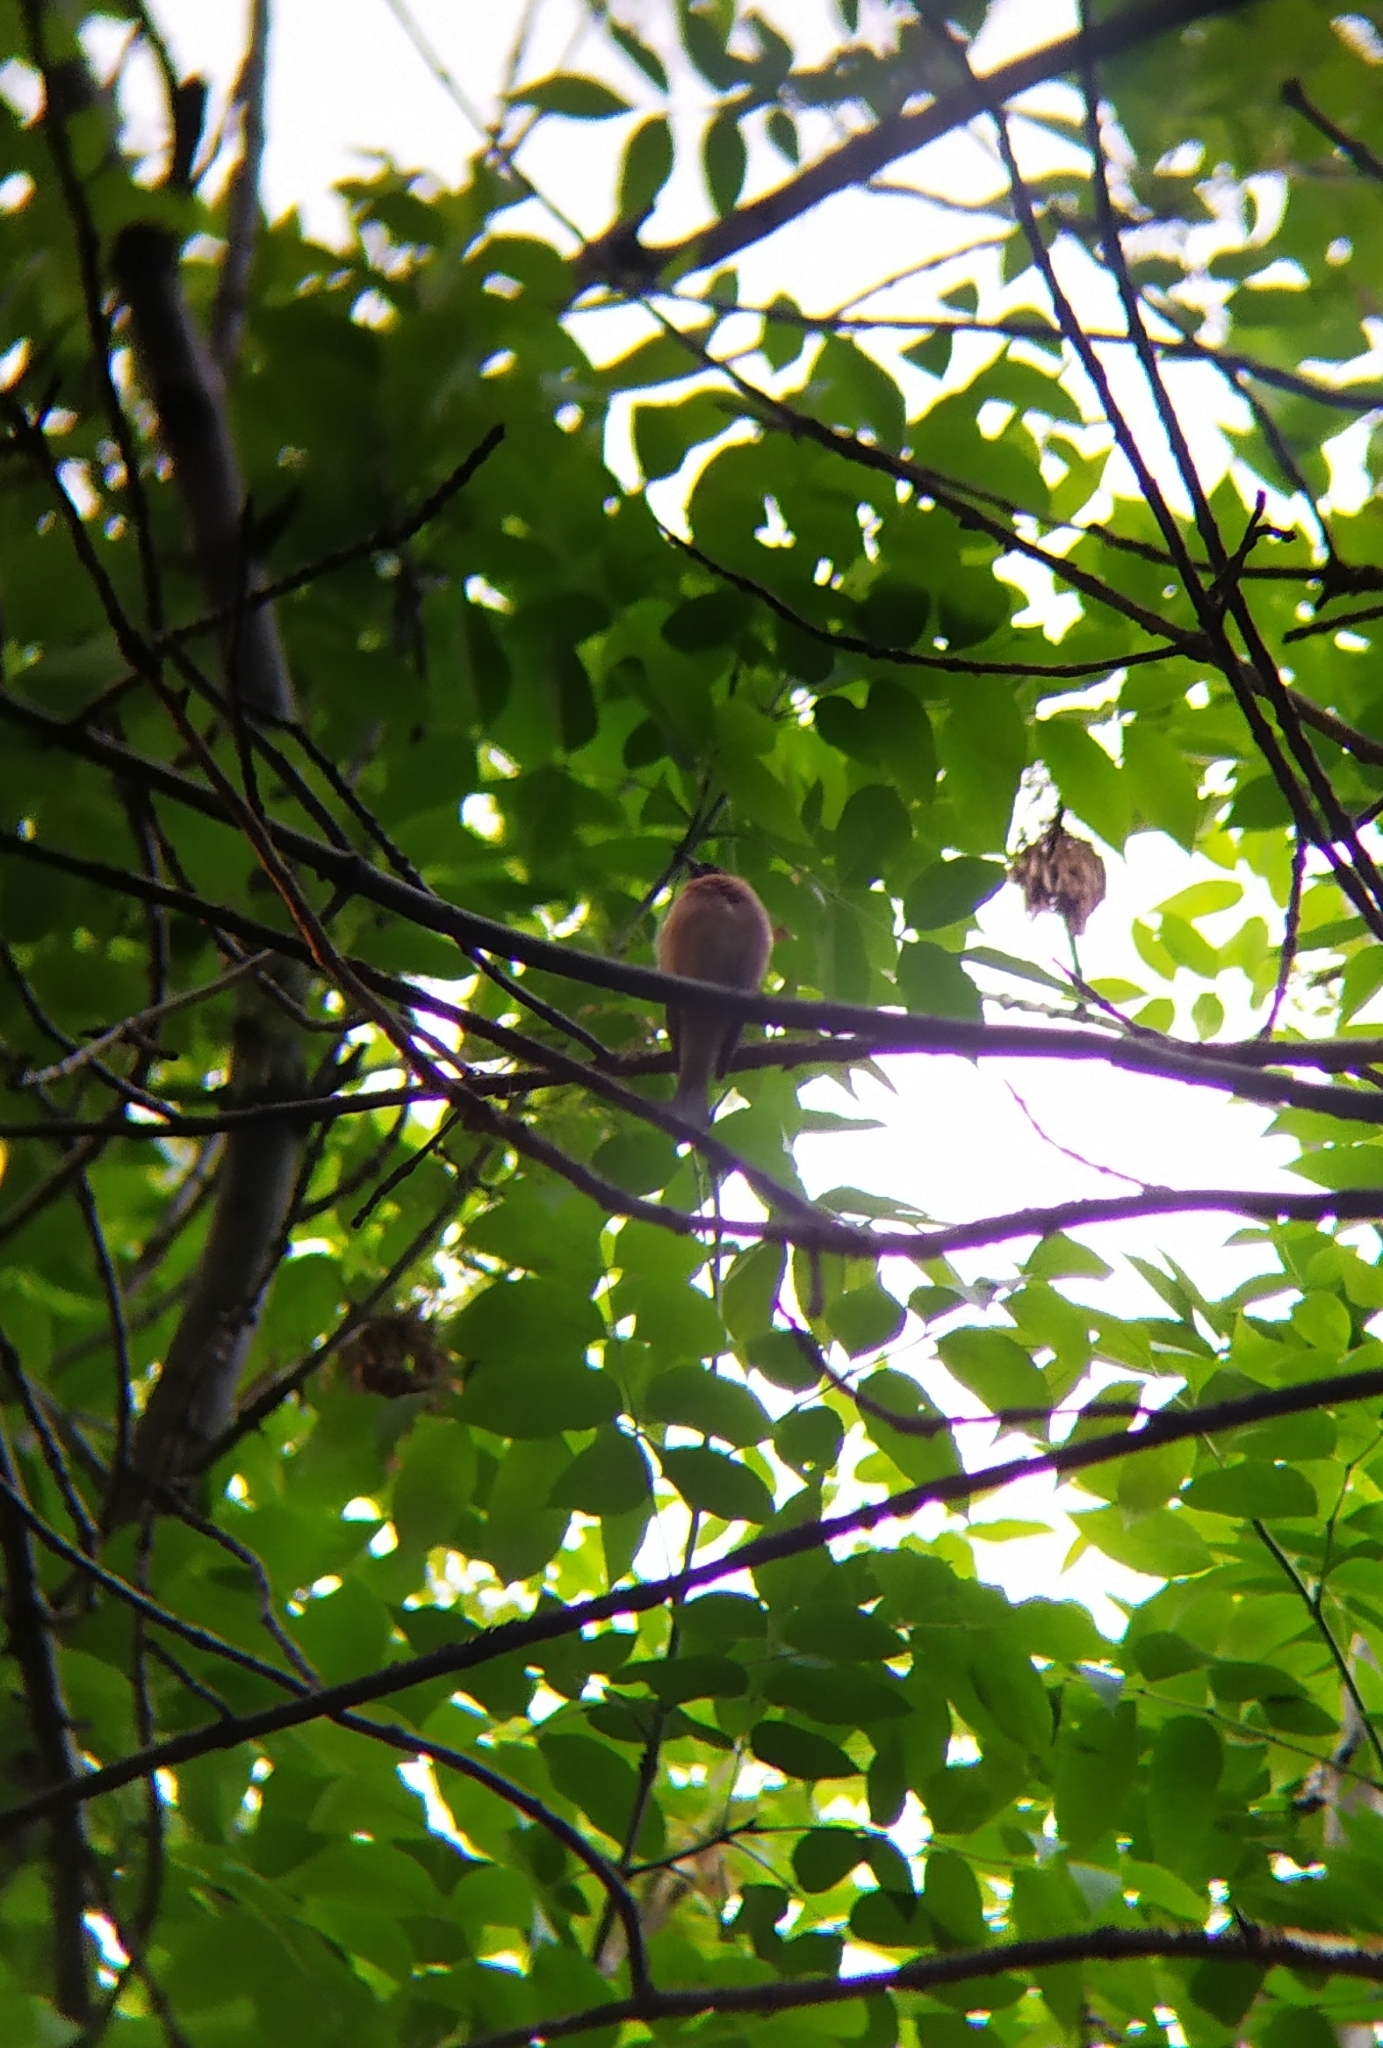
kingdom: Animalia
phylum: Chordata
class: Aves
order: Passeriformes
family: Fringillidae
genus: Fringilla
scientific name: Fringilla coelebs
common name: Common chaffinch
